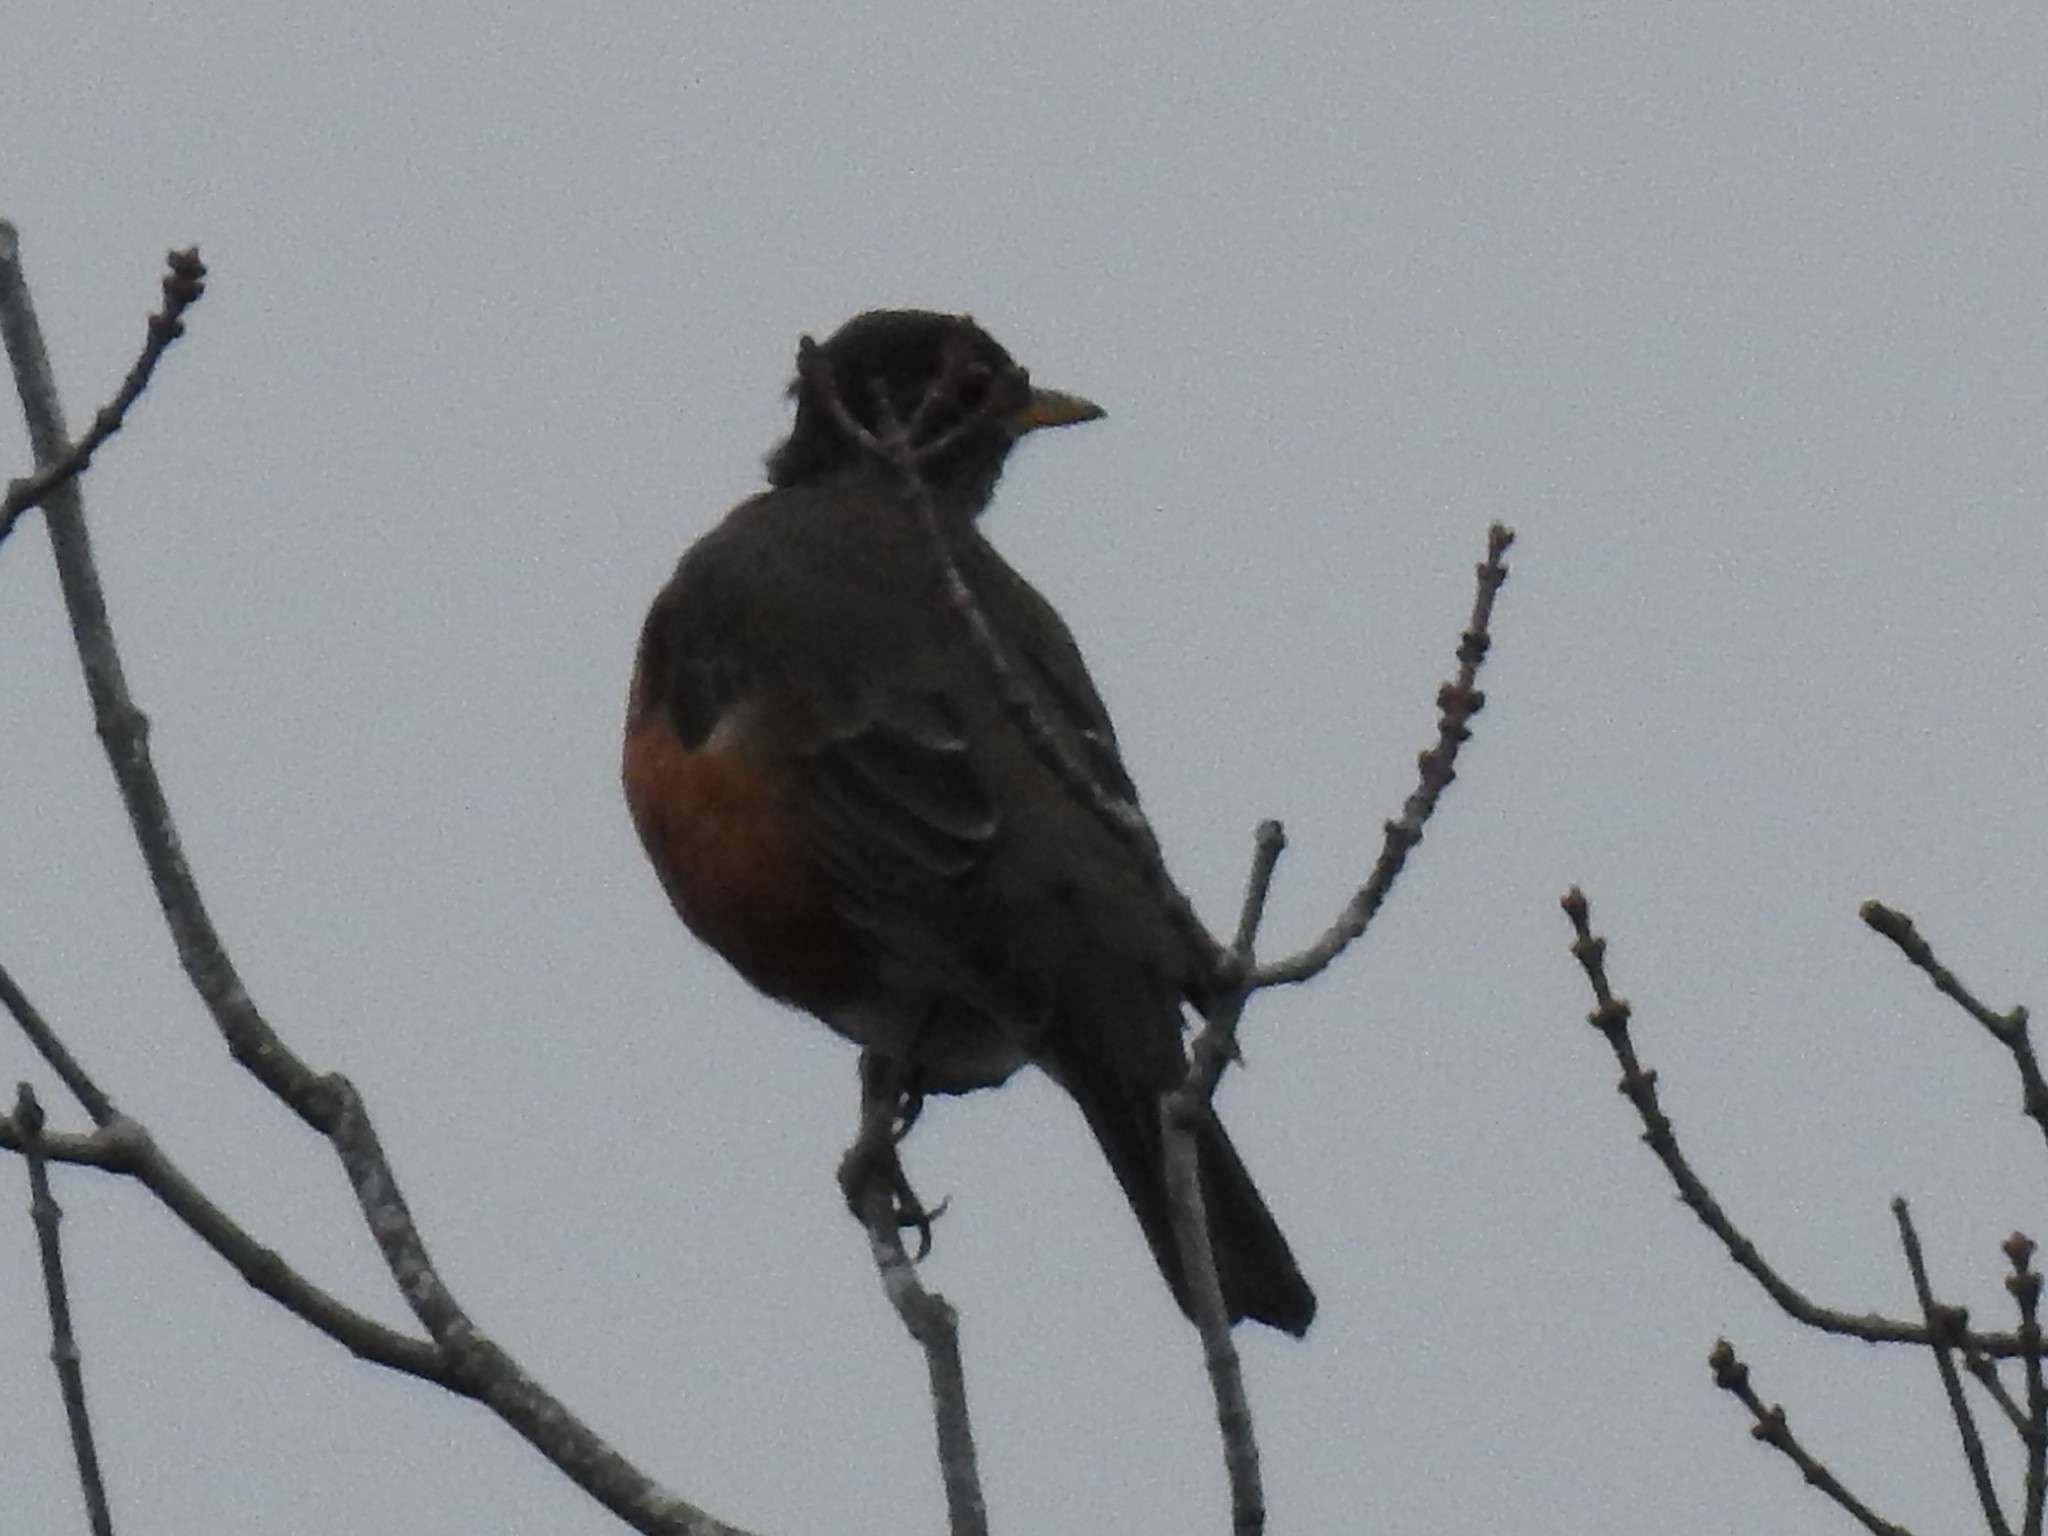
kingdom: Animalia
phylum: Chordata
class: Aves
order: Passeriformes
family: Turdidae
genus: Turdus
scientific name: Turdus migratorius
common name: American robin
